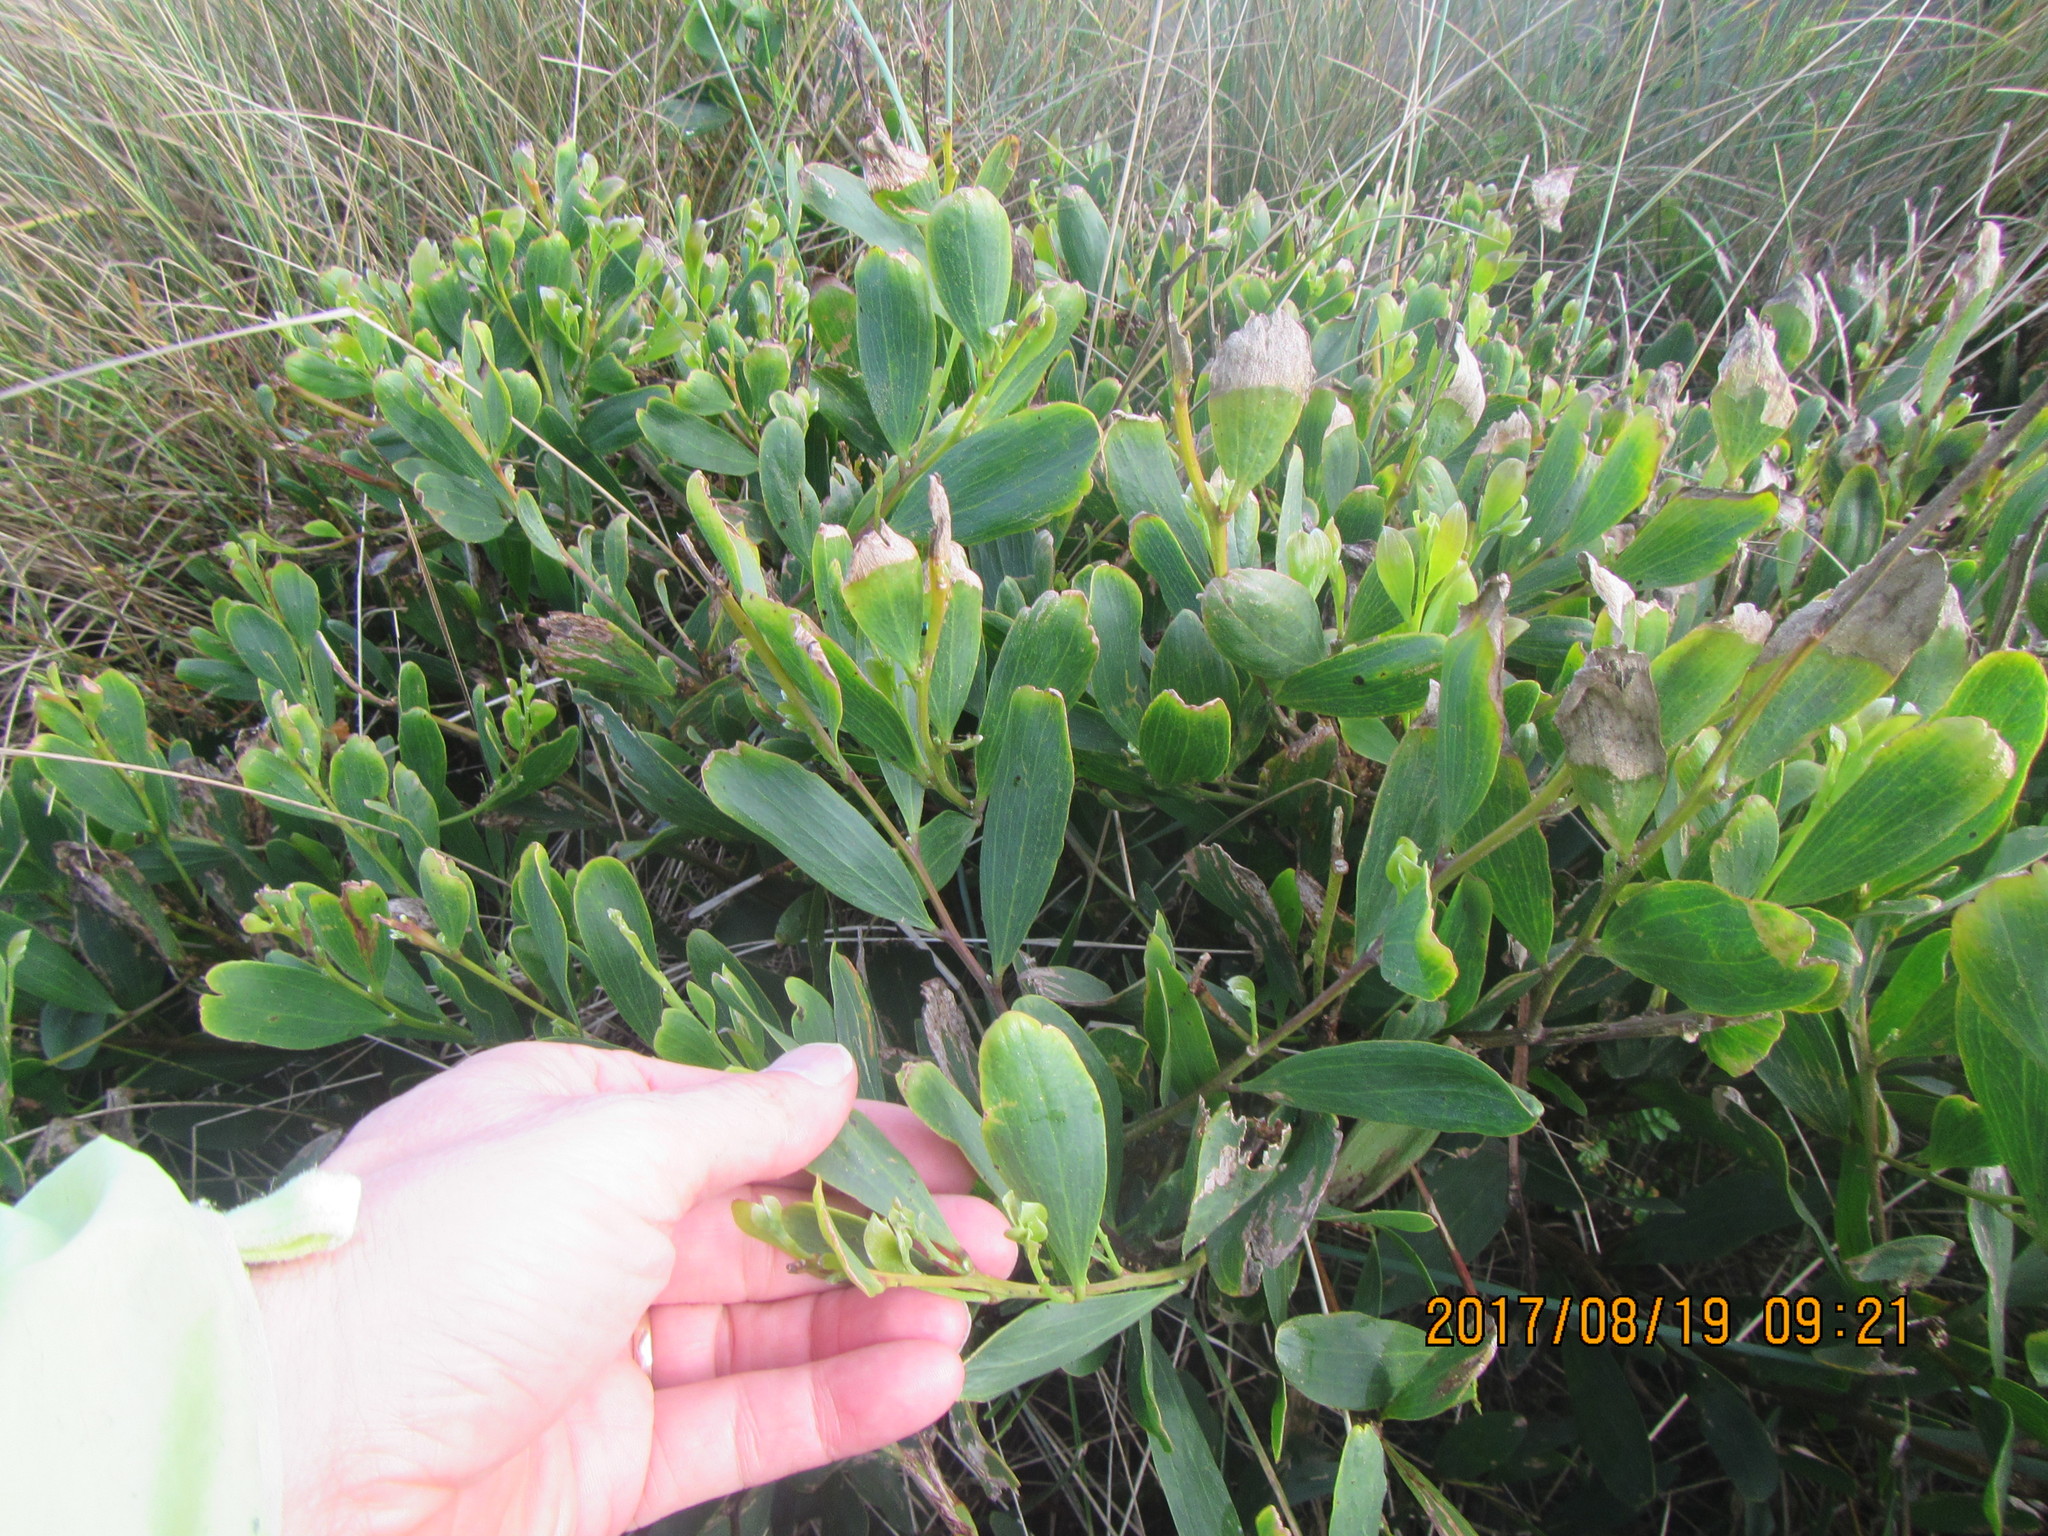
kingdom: Plantae
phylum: Tracheophyta
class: Magnoliopsida
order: Fabales
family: Fabaceae
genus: Acacia
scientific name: Acacia longifolia
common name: Sydney golden wattle
